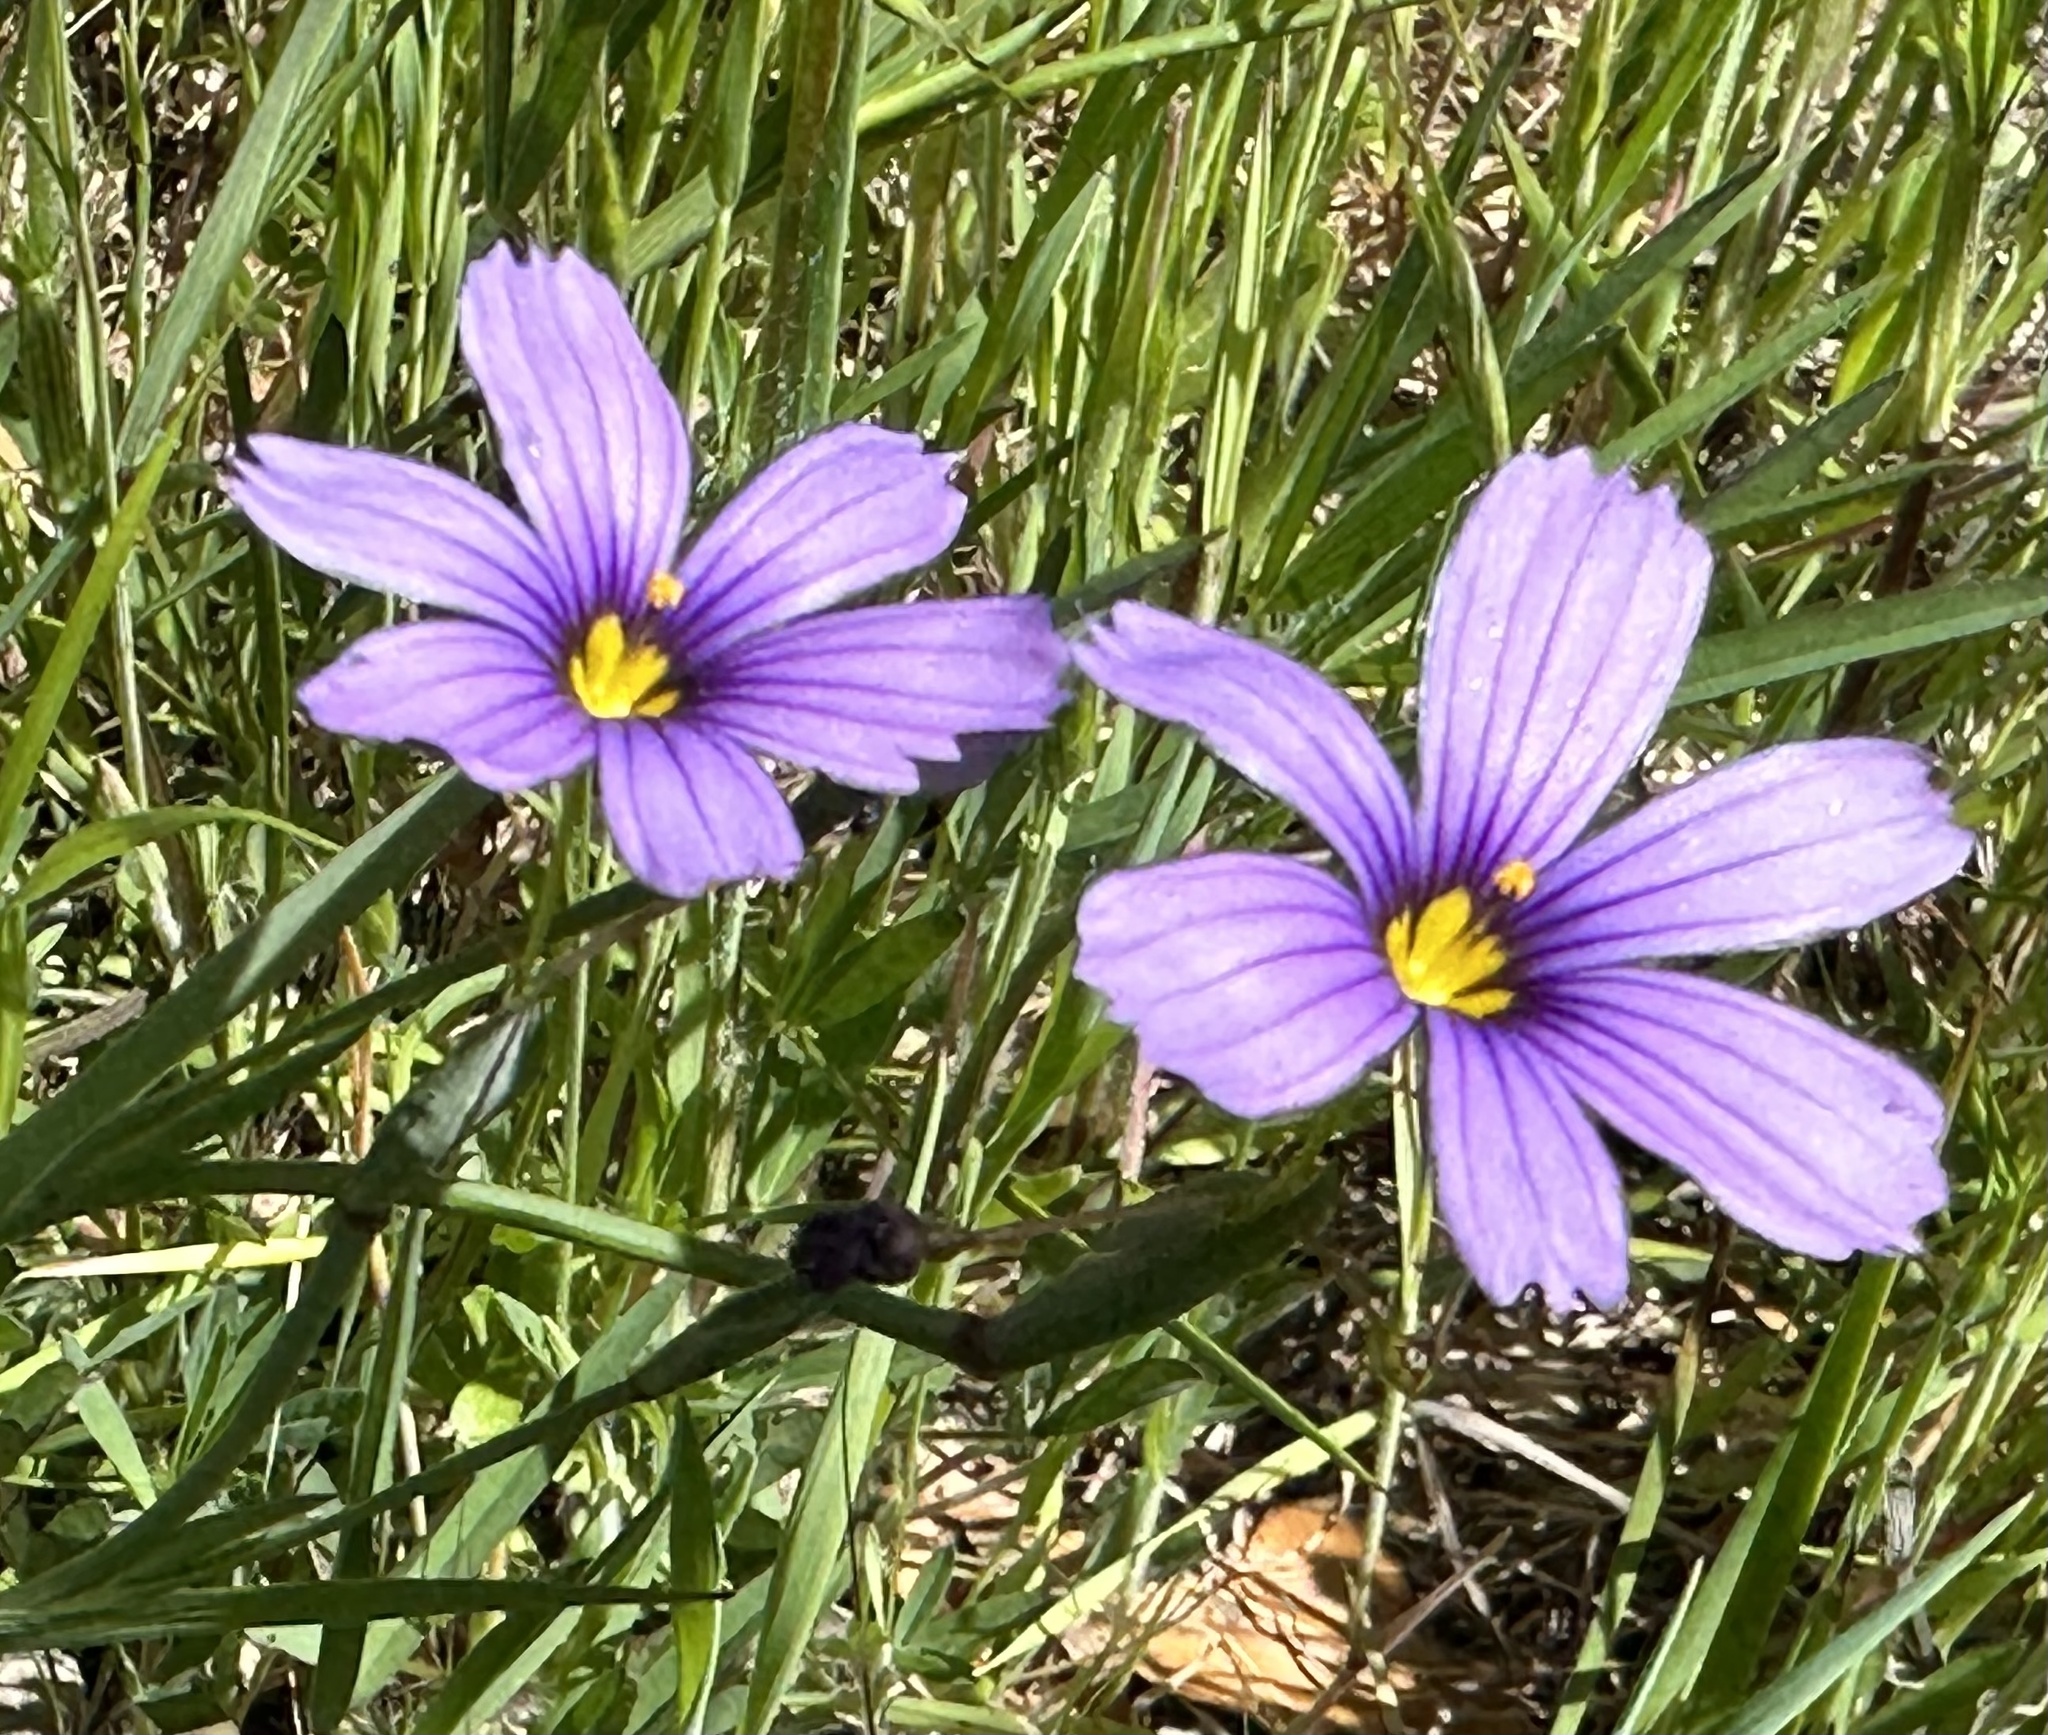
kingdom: Plantae
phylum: Tracheophyta
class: Liliopsida
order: Asparagales
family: Iridaceae
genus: Sisyrinchium
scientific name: Sisyrinchium bellum
